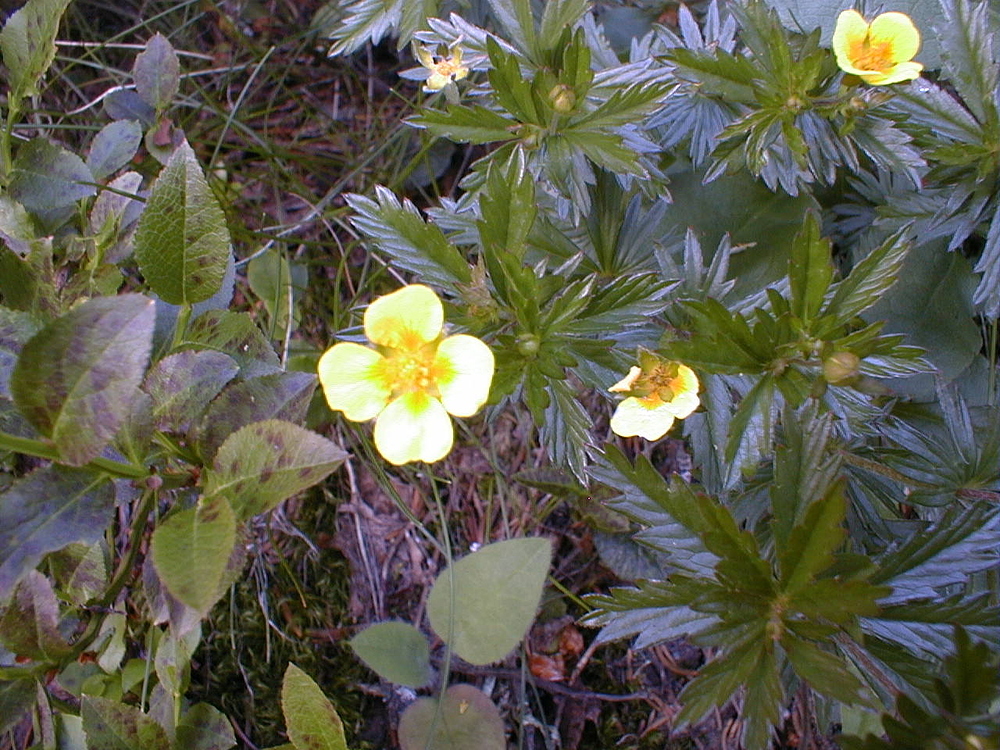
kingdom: Plantae
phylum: Tracheophyta
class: Magnoliopsida
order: Rosales
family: Rosaceae
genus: Potentilla
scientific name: Potentilla erecta
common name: Tormentil
